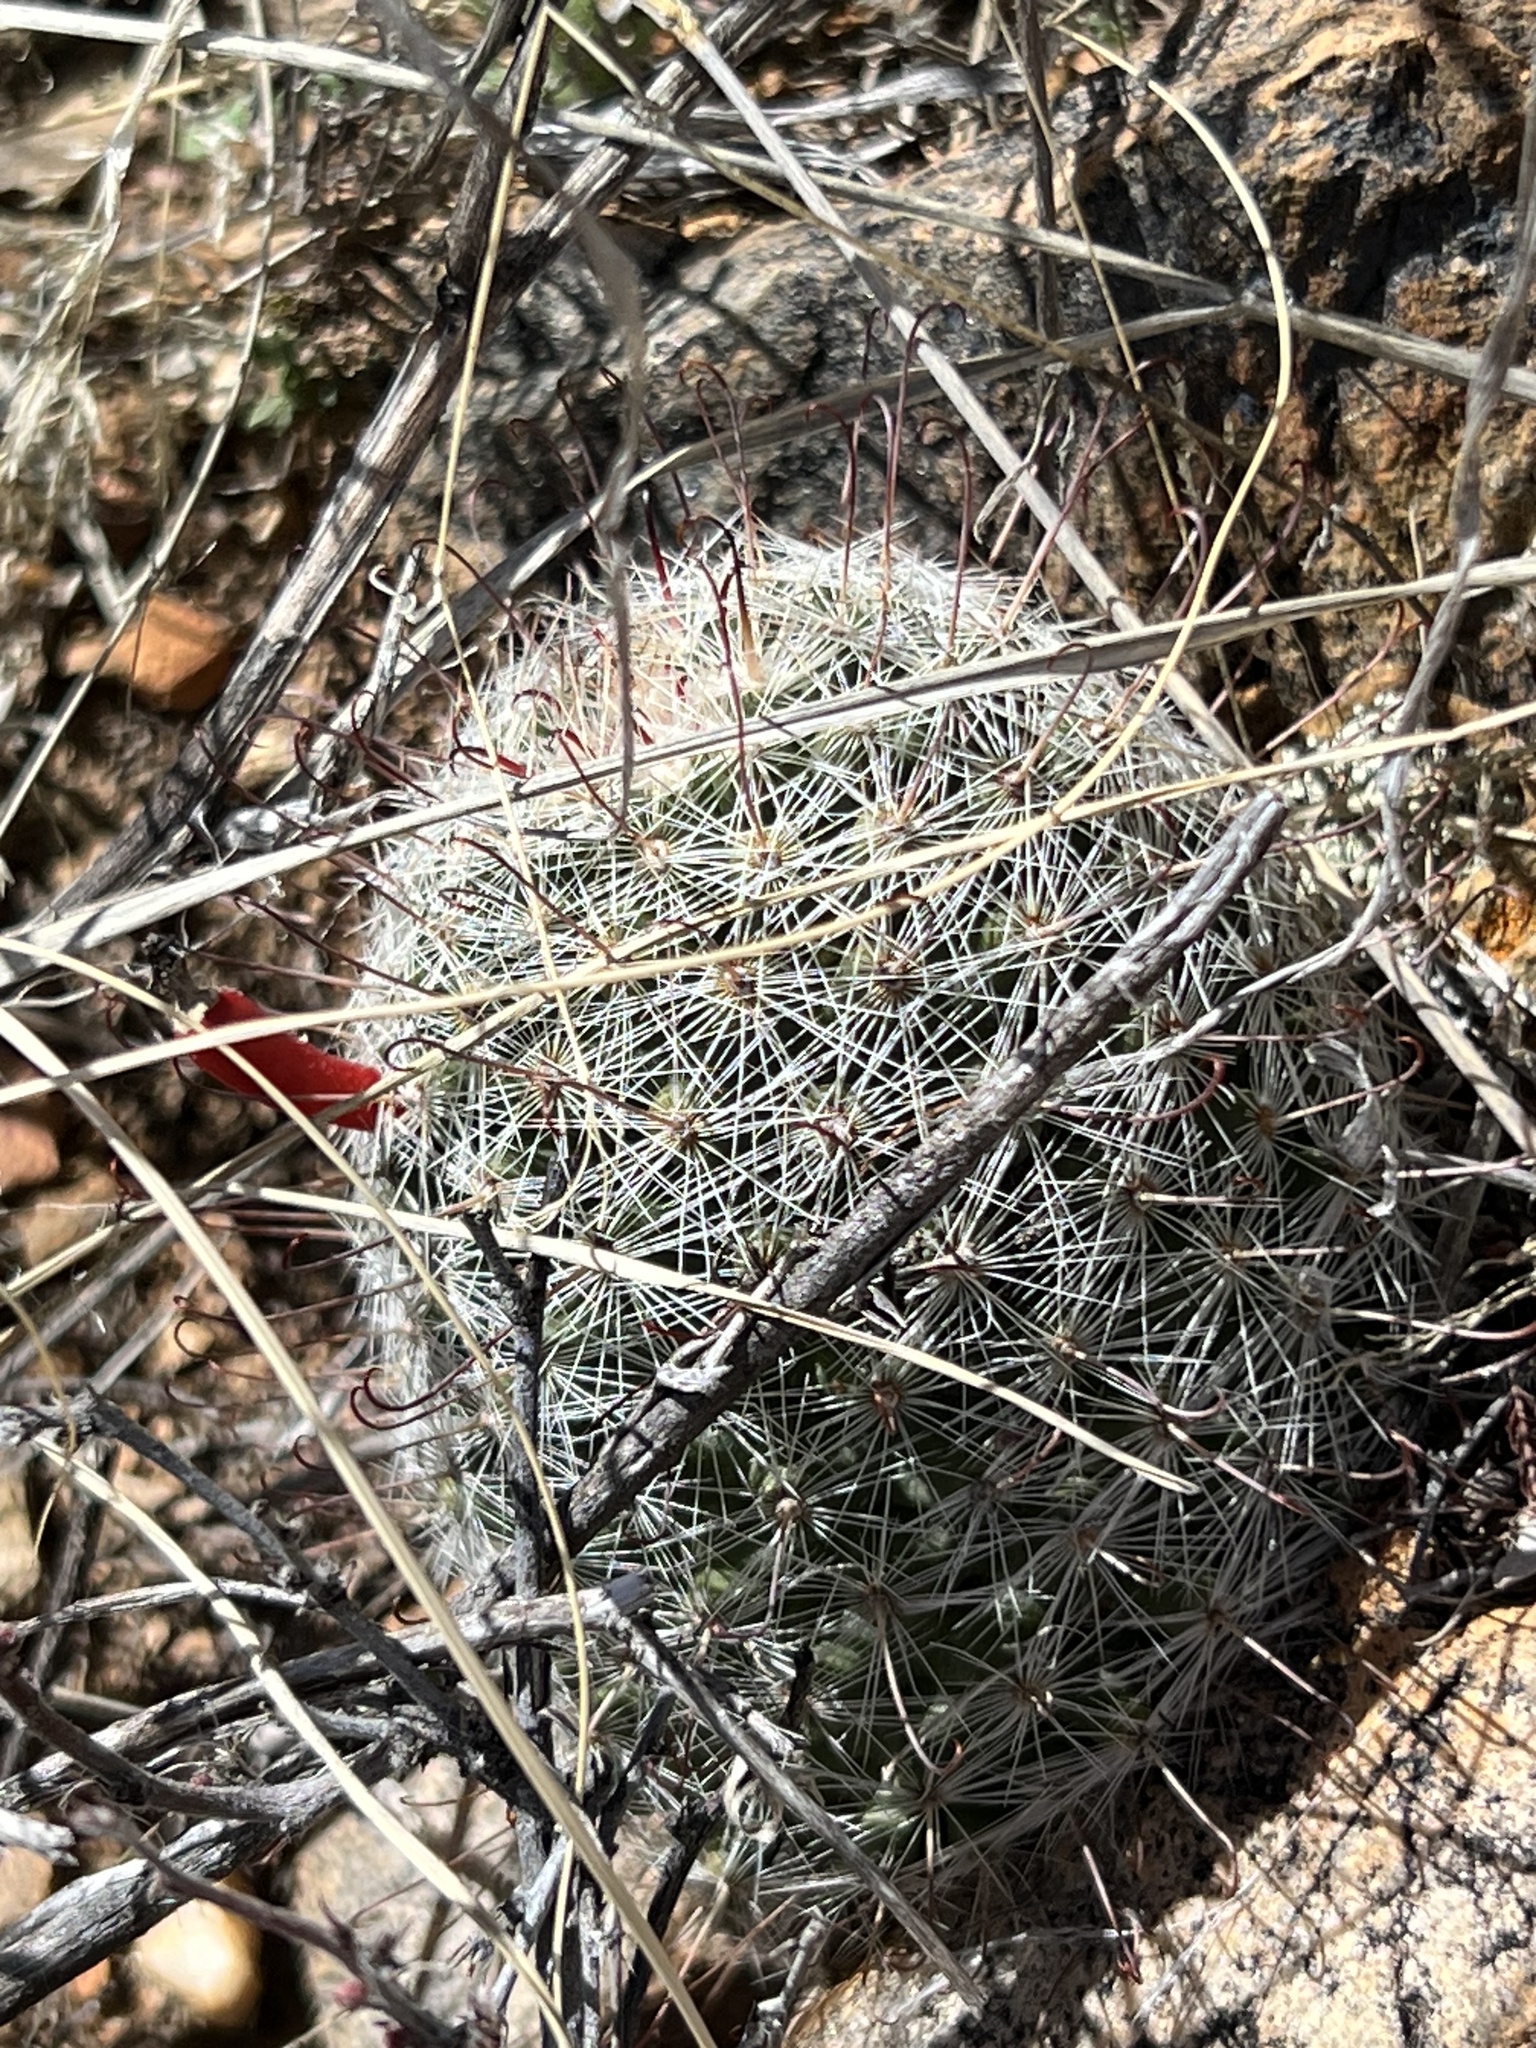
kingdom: Plantae
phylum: Tracheophyta
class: Magnoliopsida
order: Caryophyllales
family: Cactaceae
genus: Cochemiea
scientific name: Cochemiea grahamii
